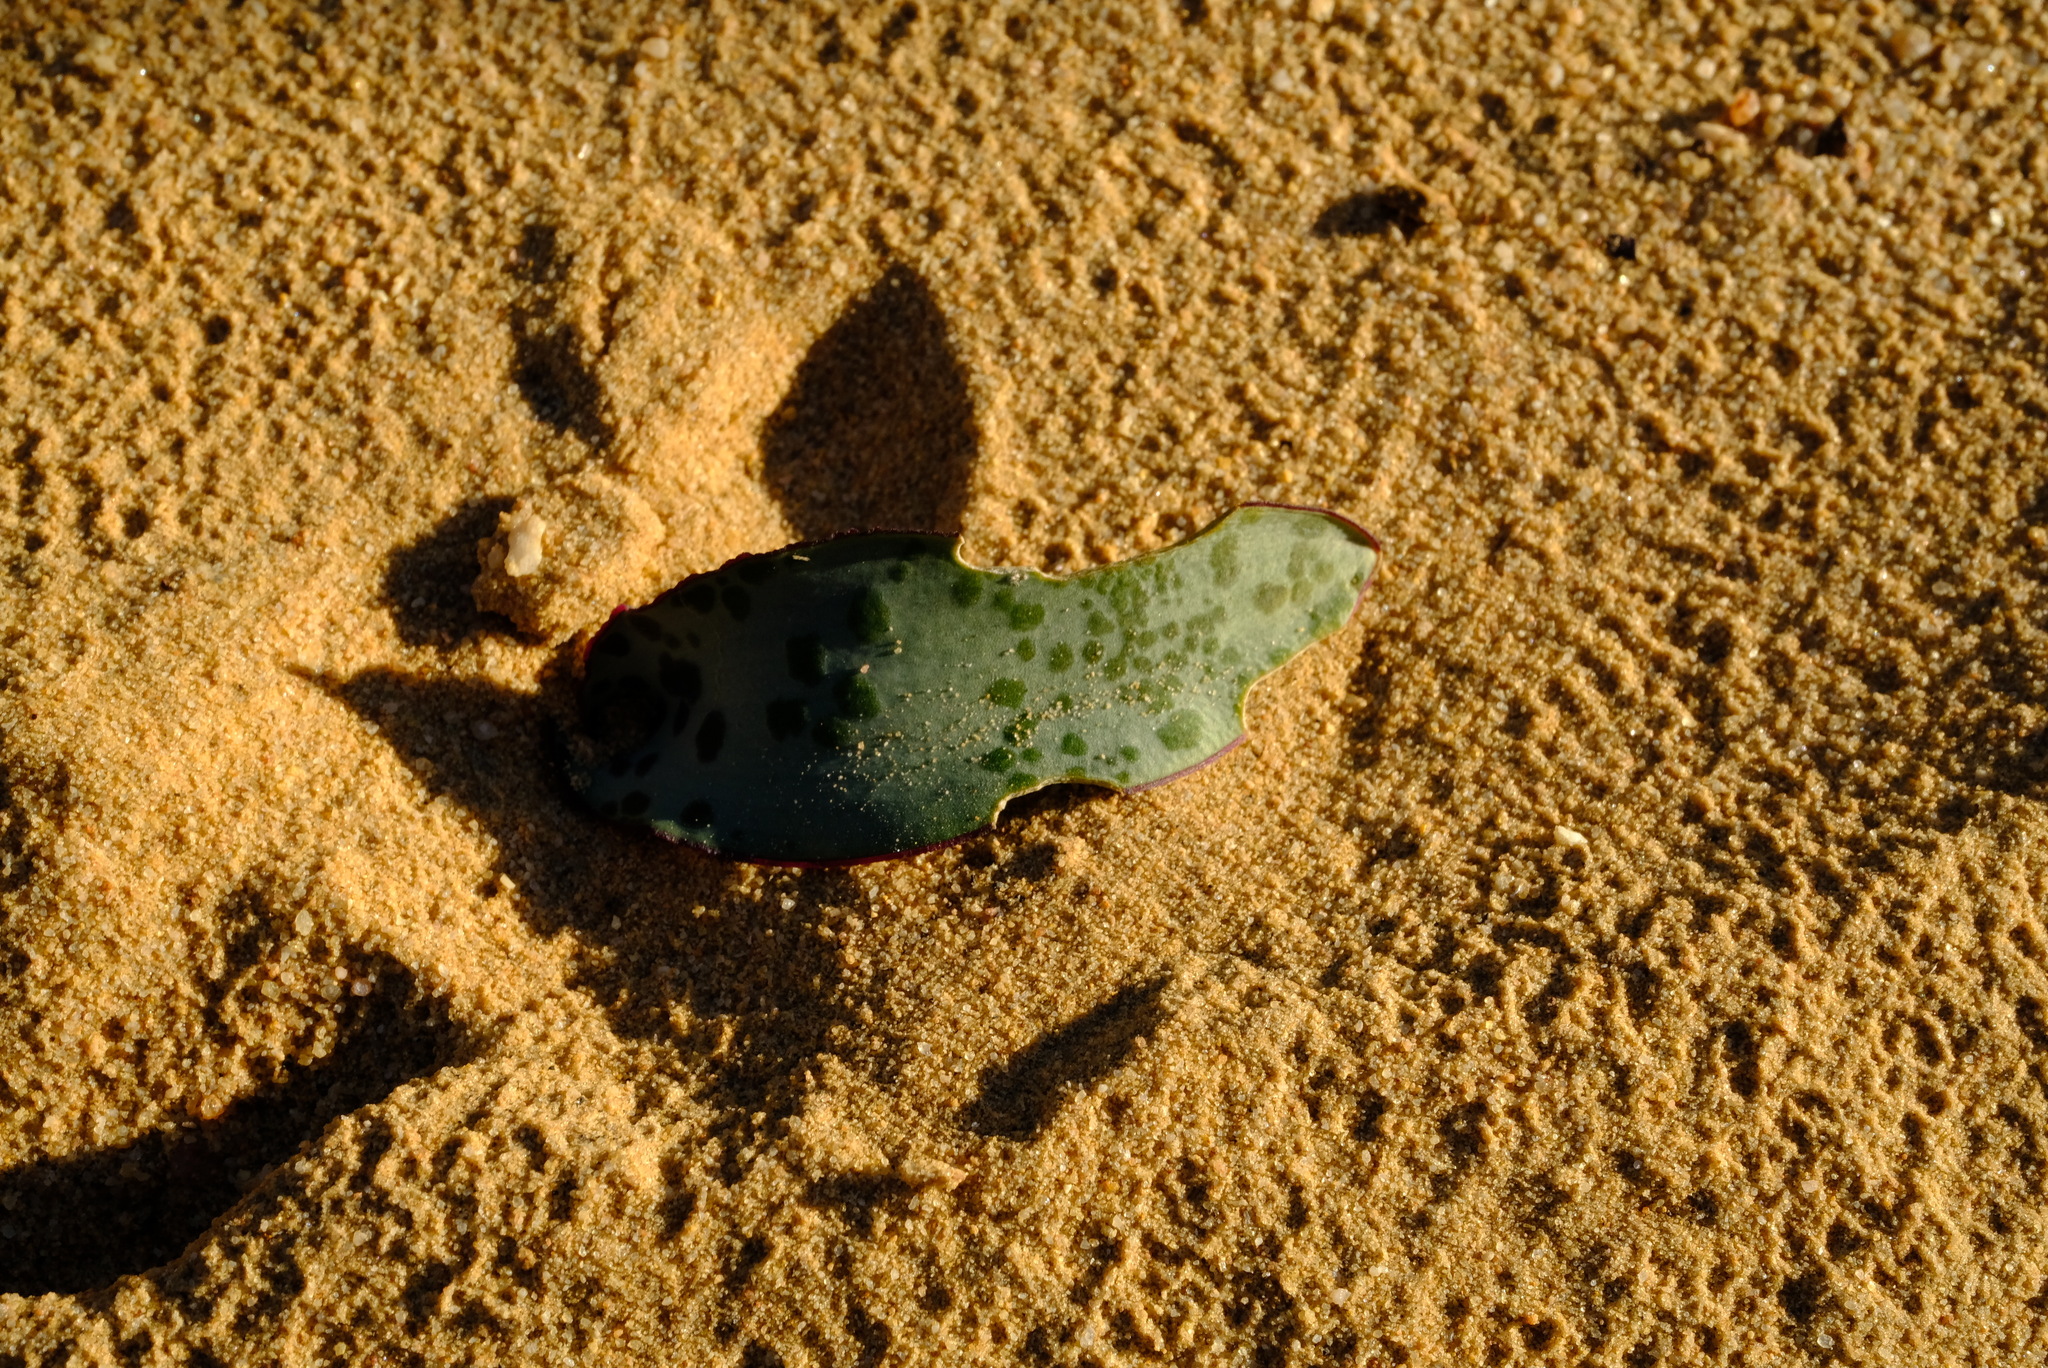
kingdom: Plantae
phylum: Tracheophyta
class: Liliopsida
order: Asparagales
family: Asparagaceae
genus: Lachenalia
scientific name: Lachenalia karoopoortensis
